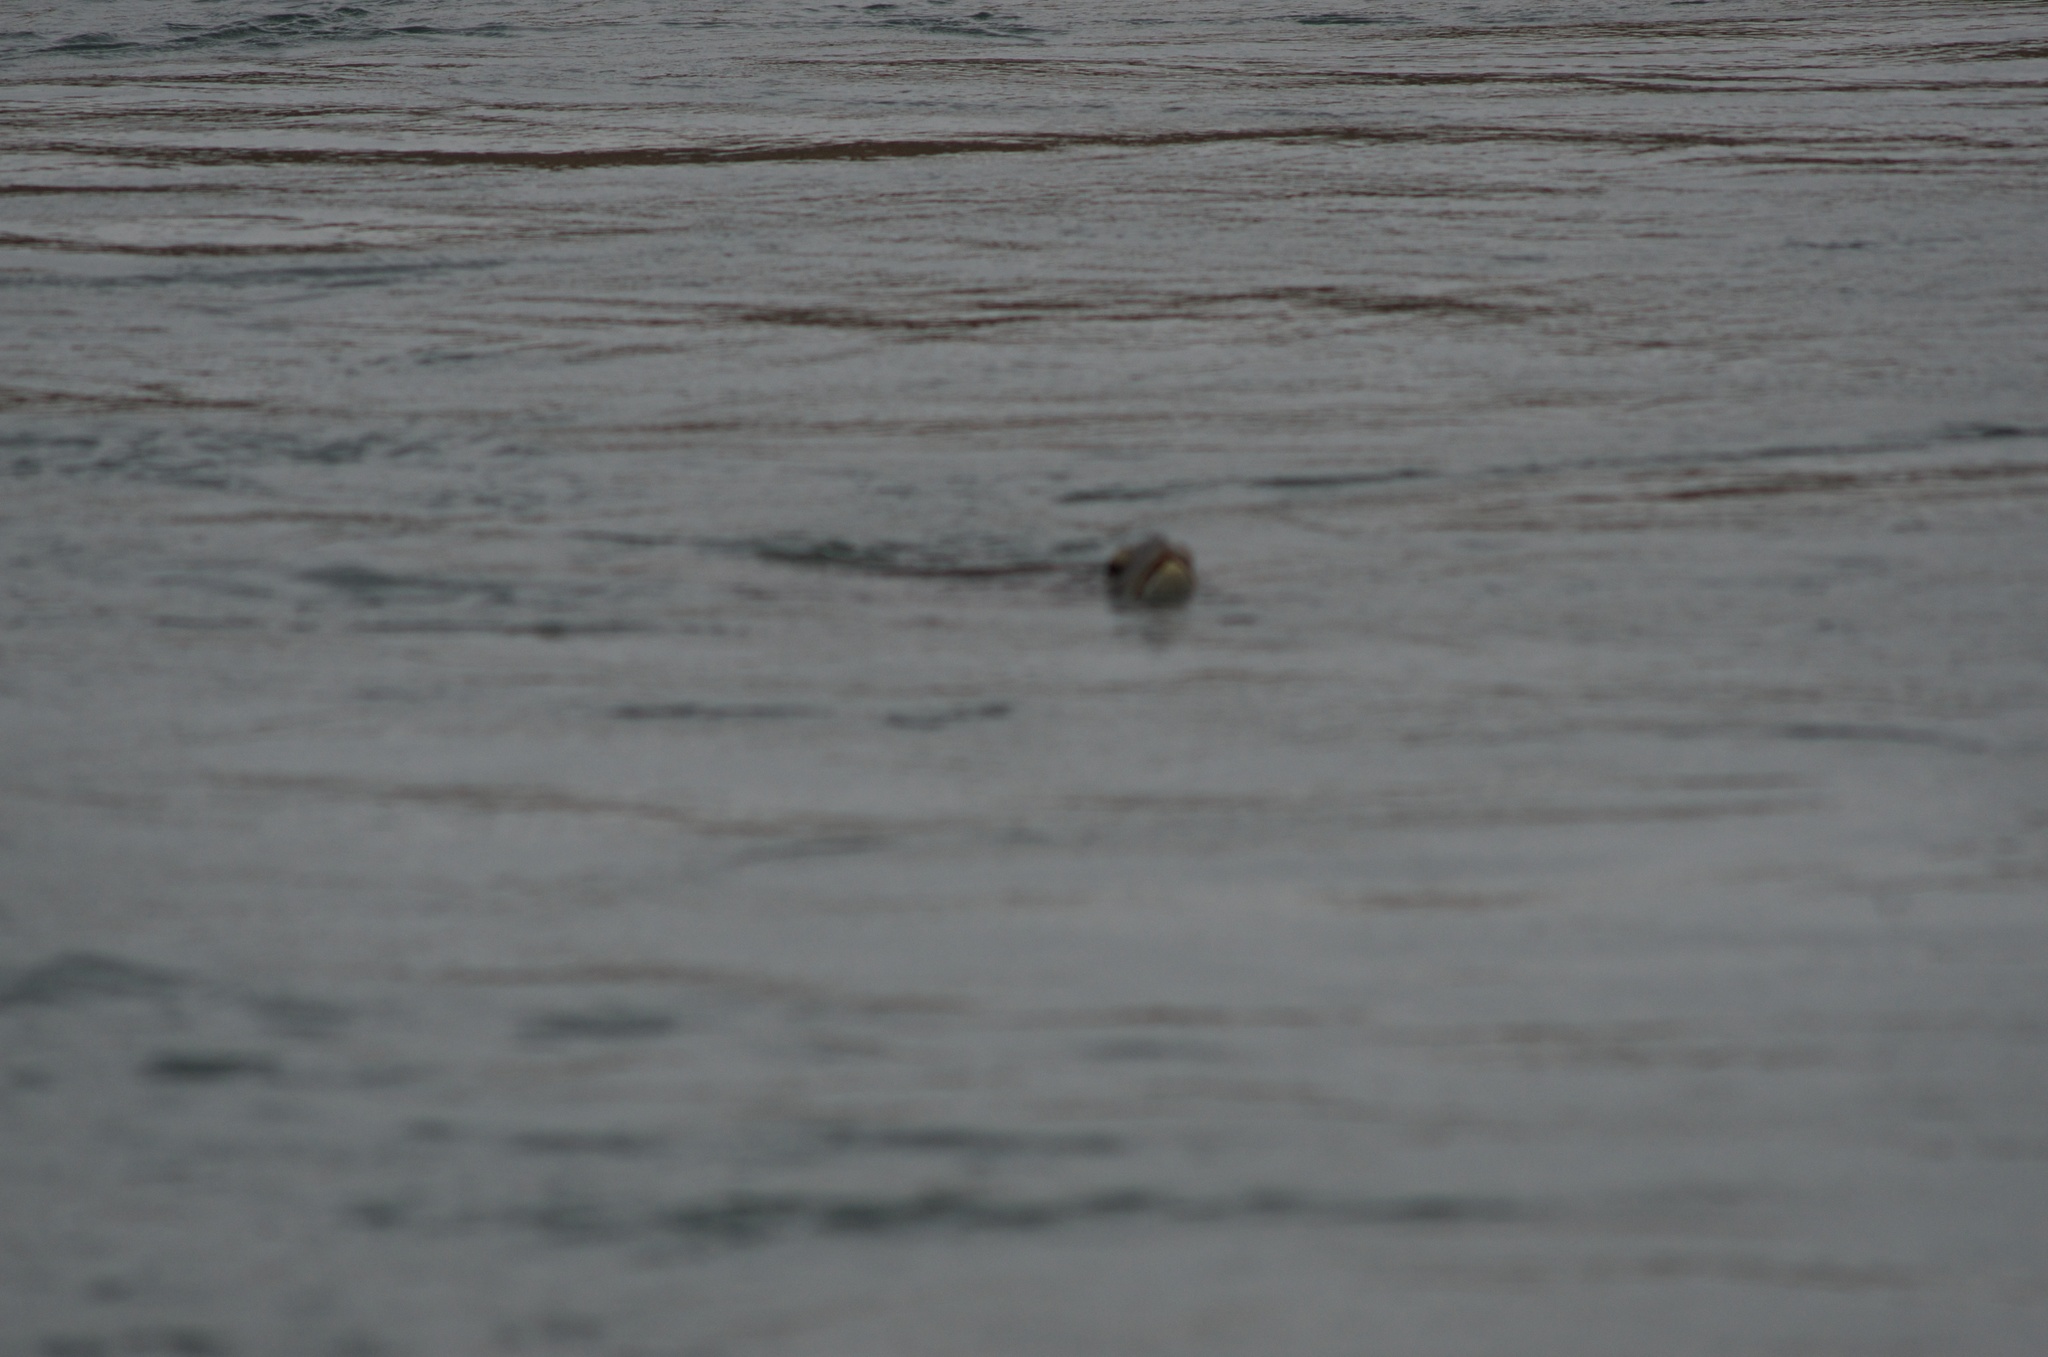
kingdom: Animalia
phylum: Chordata
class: Testudines
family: Cheloniidae
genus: Chelonia
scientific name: Chelonia mydas
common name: Green turtle
